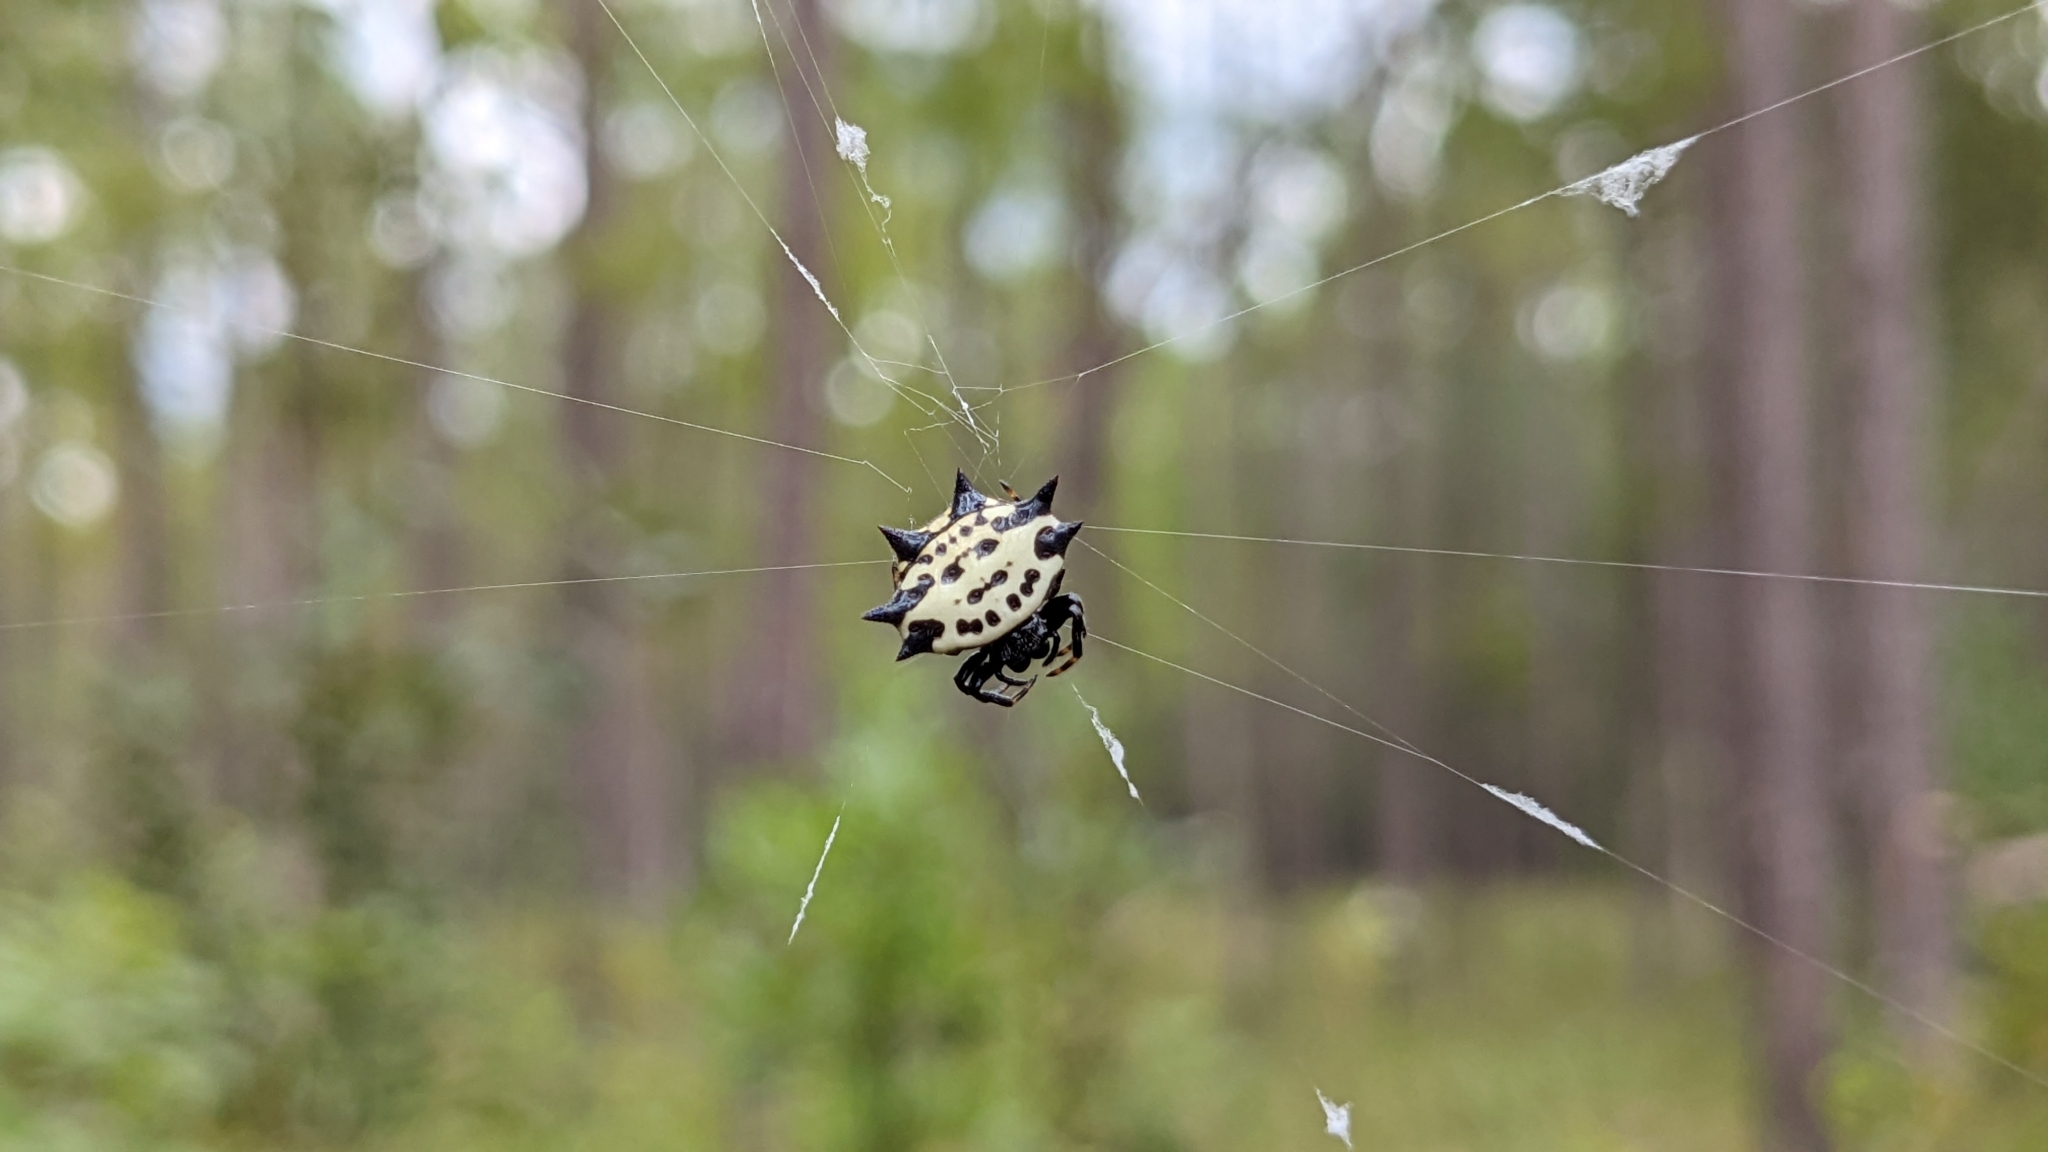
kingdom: Animalia
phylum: Arthropoda
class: Arachnida
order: Araneae
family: Araneidae
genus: Gasteracantha
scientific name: Gasteracantha cancriformis
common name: Orb weavers
